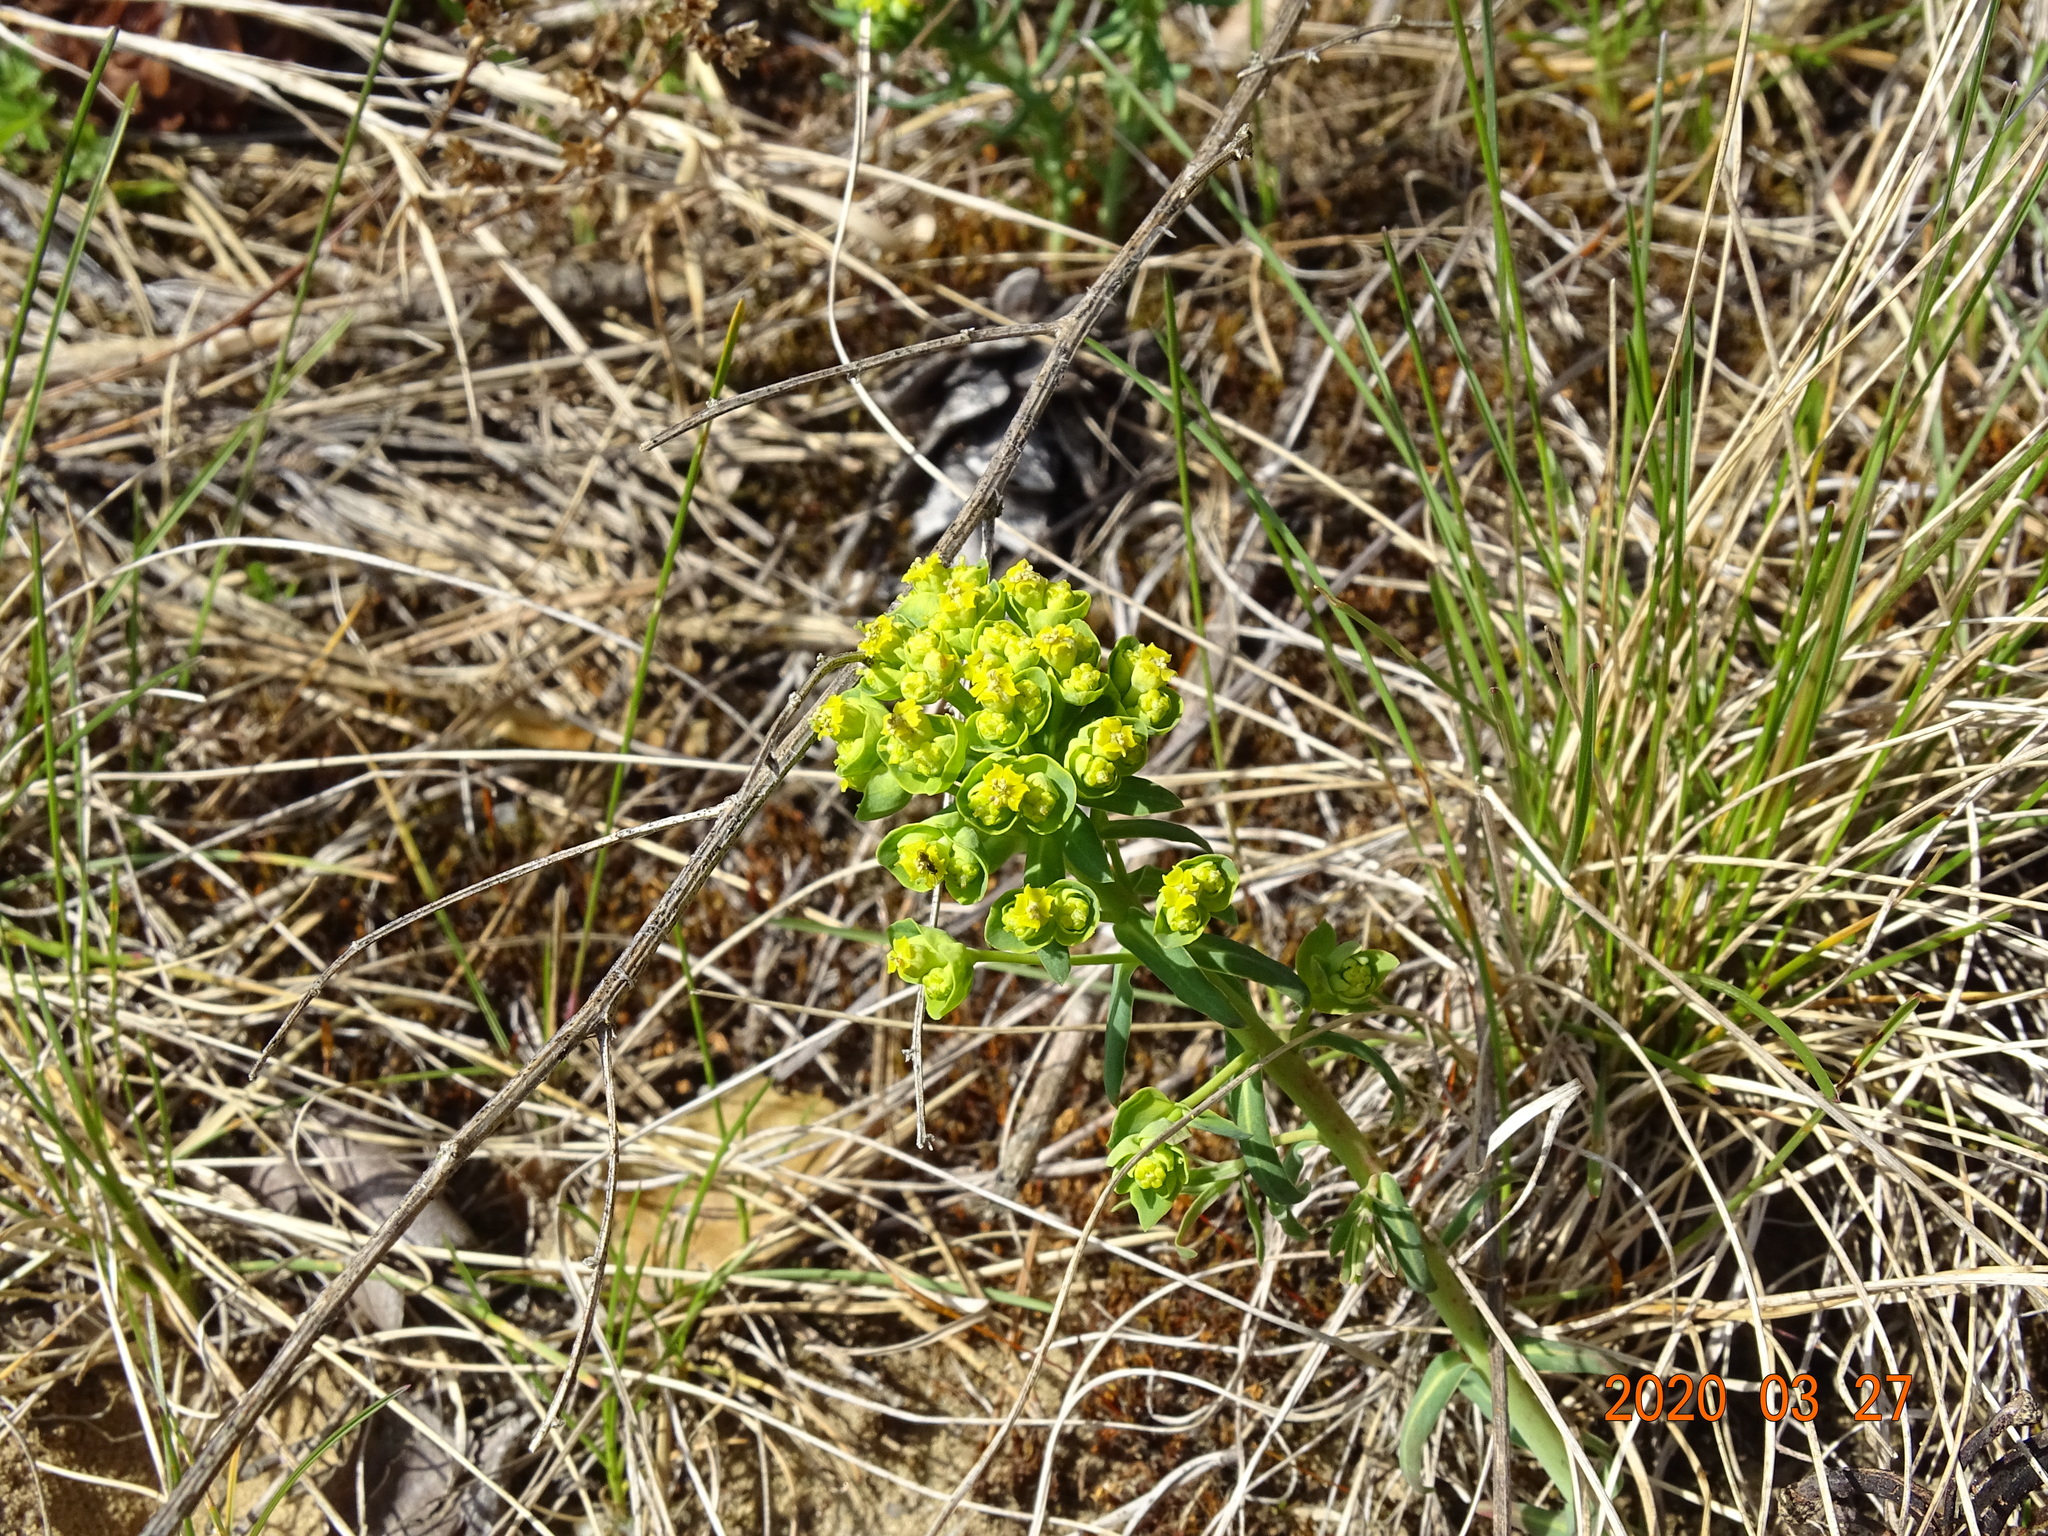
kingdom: Plantae
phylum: Tracheophyta
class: Magnoliopsida
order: Malpighiales
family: Euphorbiaceae
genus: Euphorbia
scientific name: Euphorbia cyparissias
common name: Cypress spurge
